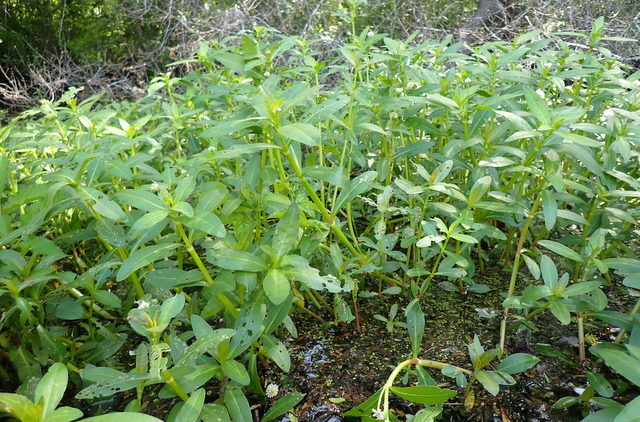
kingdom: Plantae
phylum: Tracheophyta
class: Magnoliopsida
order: Caryophyllales
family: Amaranthaceae
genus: Alternanthera
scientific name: Alternanthera philoxeroides
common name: Alligatorweed
